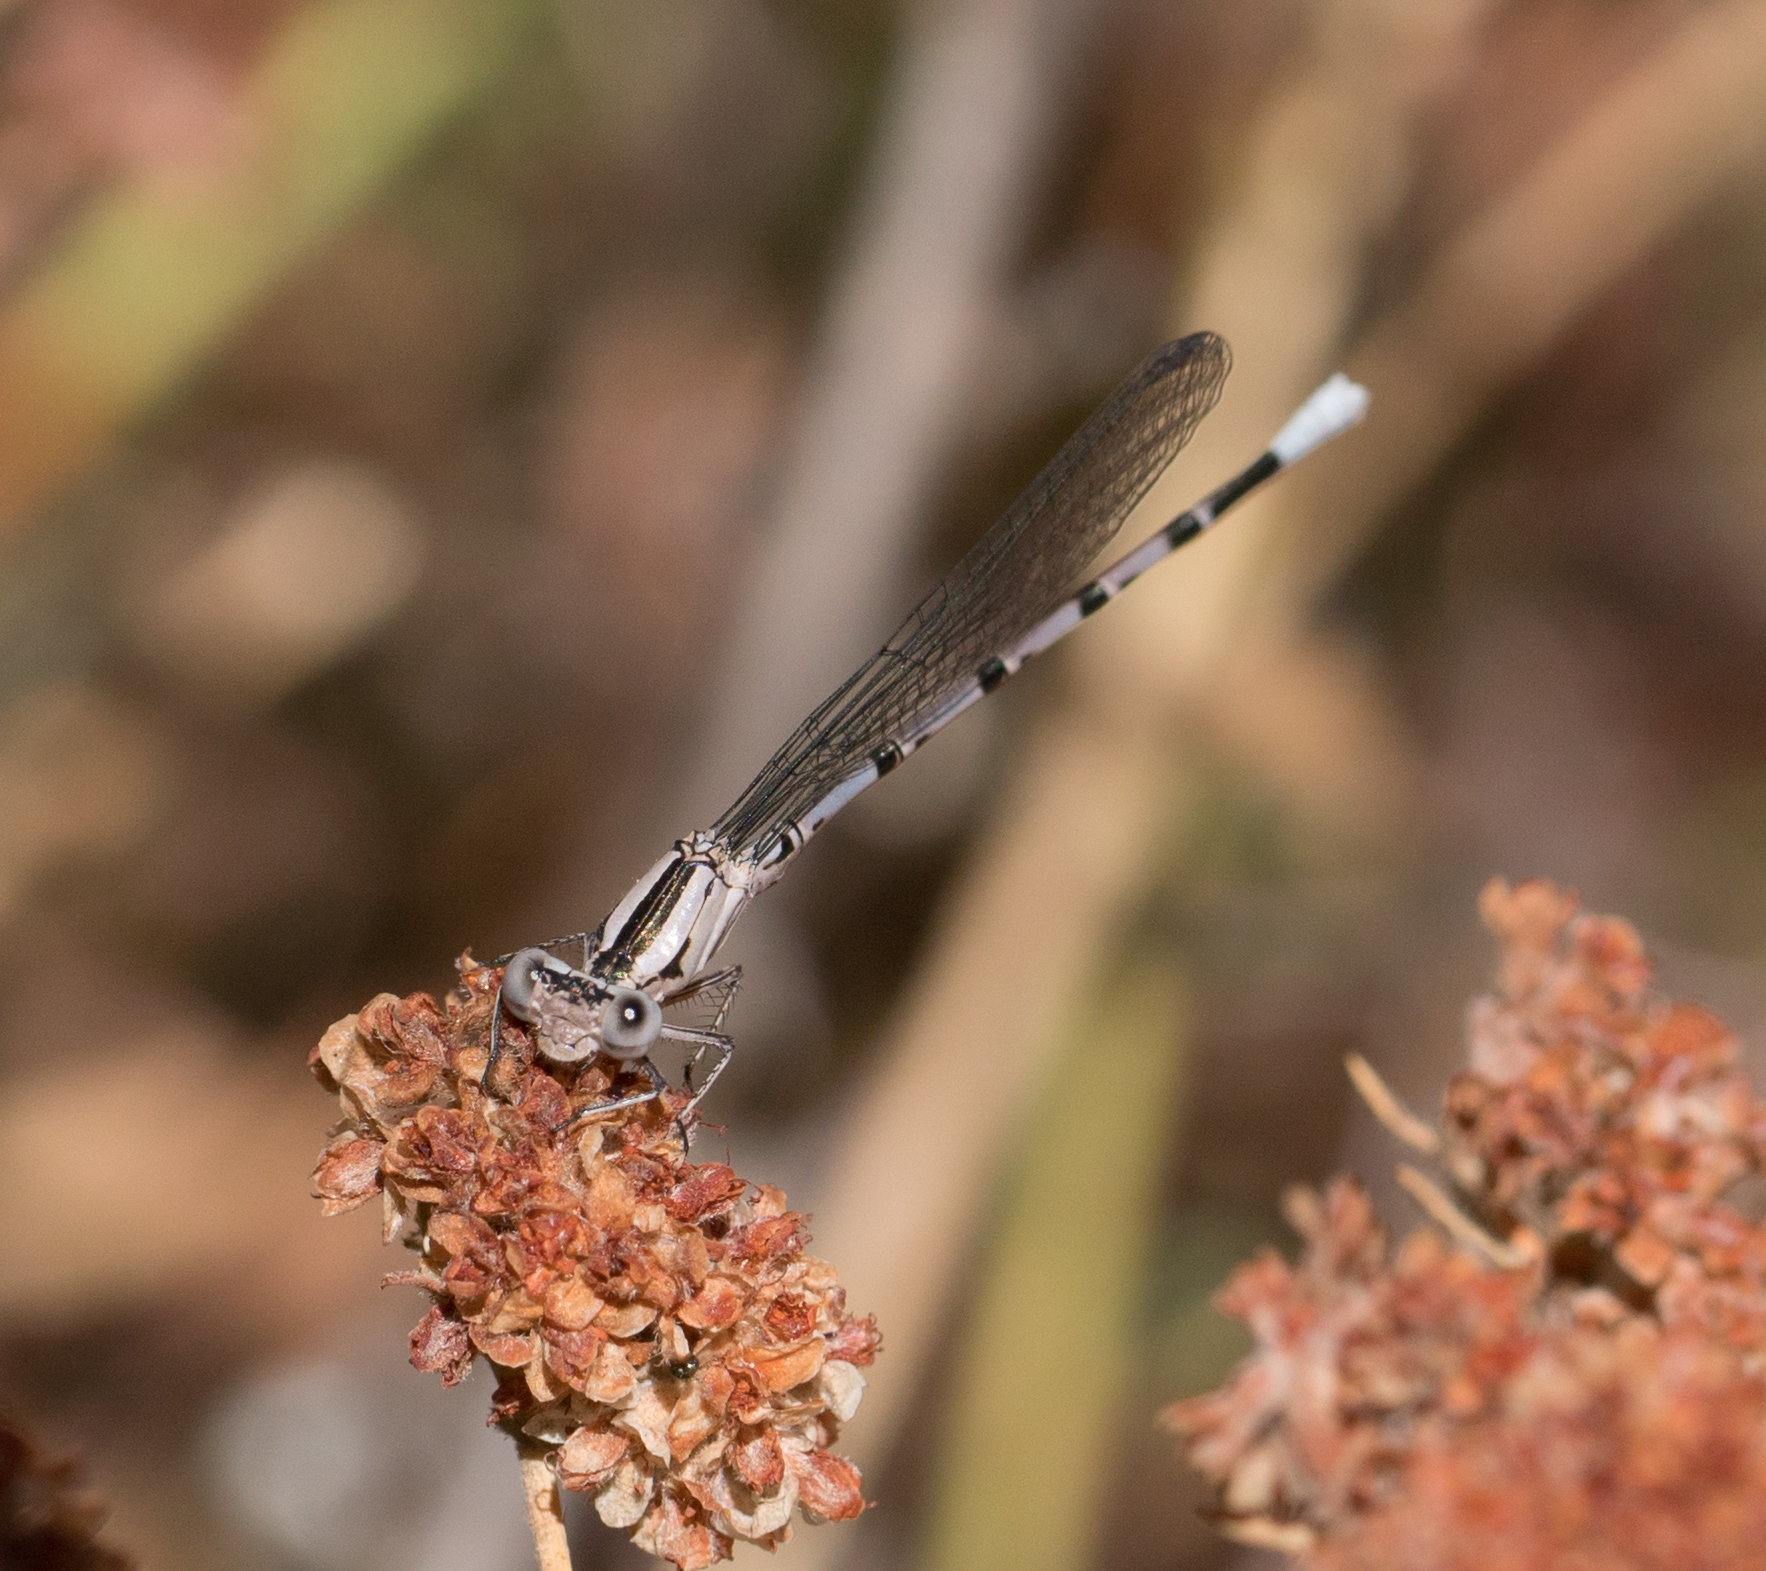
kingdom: Animalia
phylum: Arthropoda
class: Insecta
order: Odonata
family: Coenagrionidae
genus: Argia
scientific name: Argia vivida
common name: Vivid dancer
